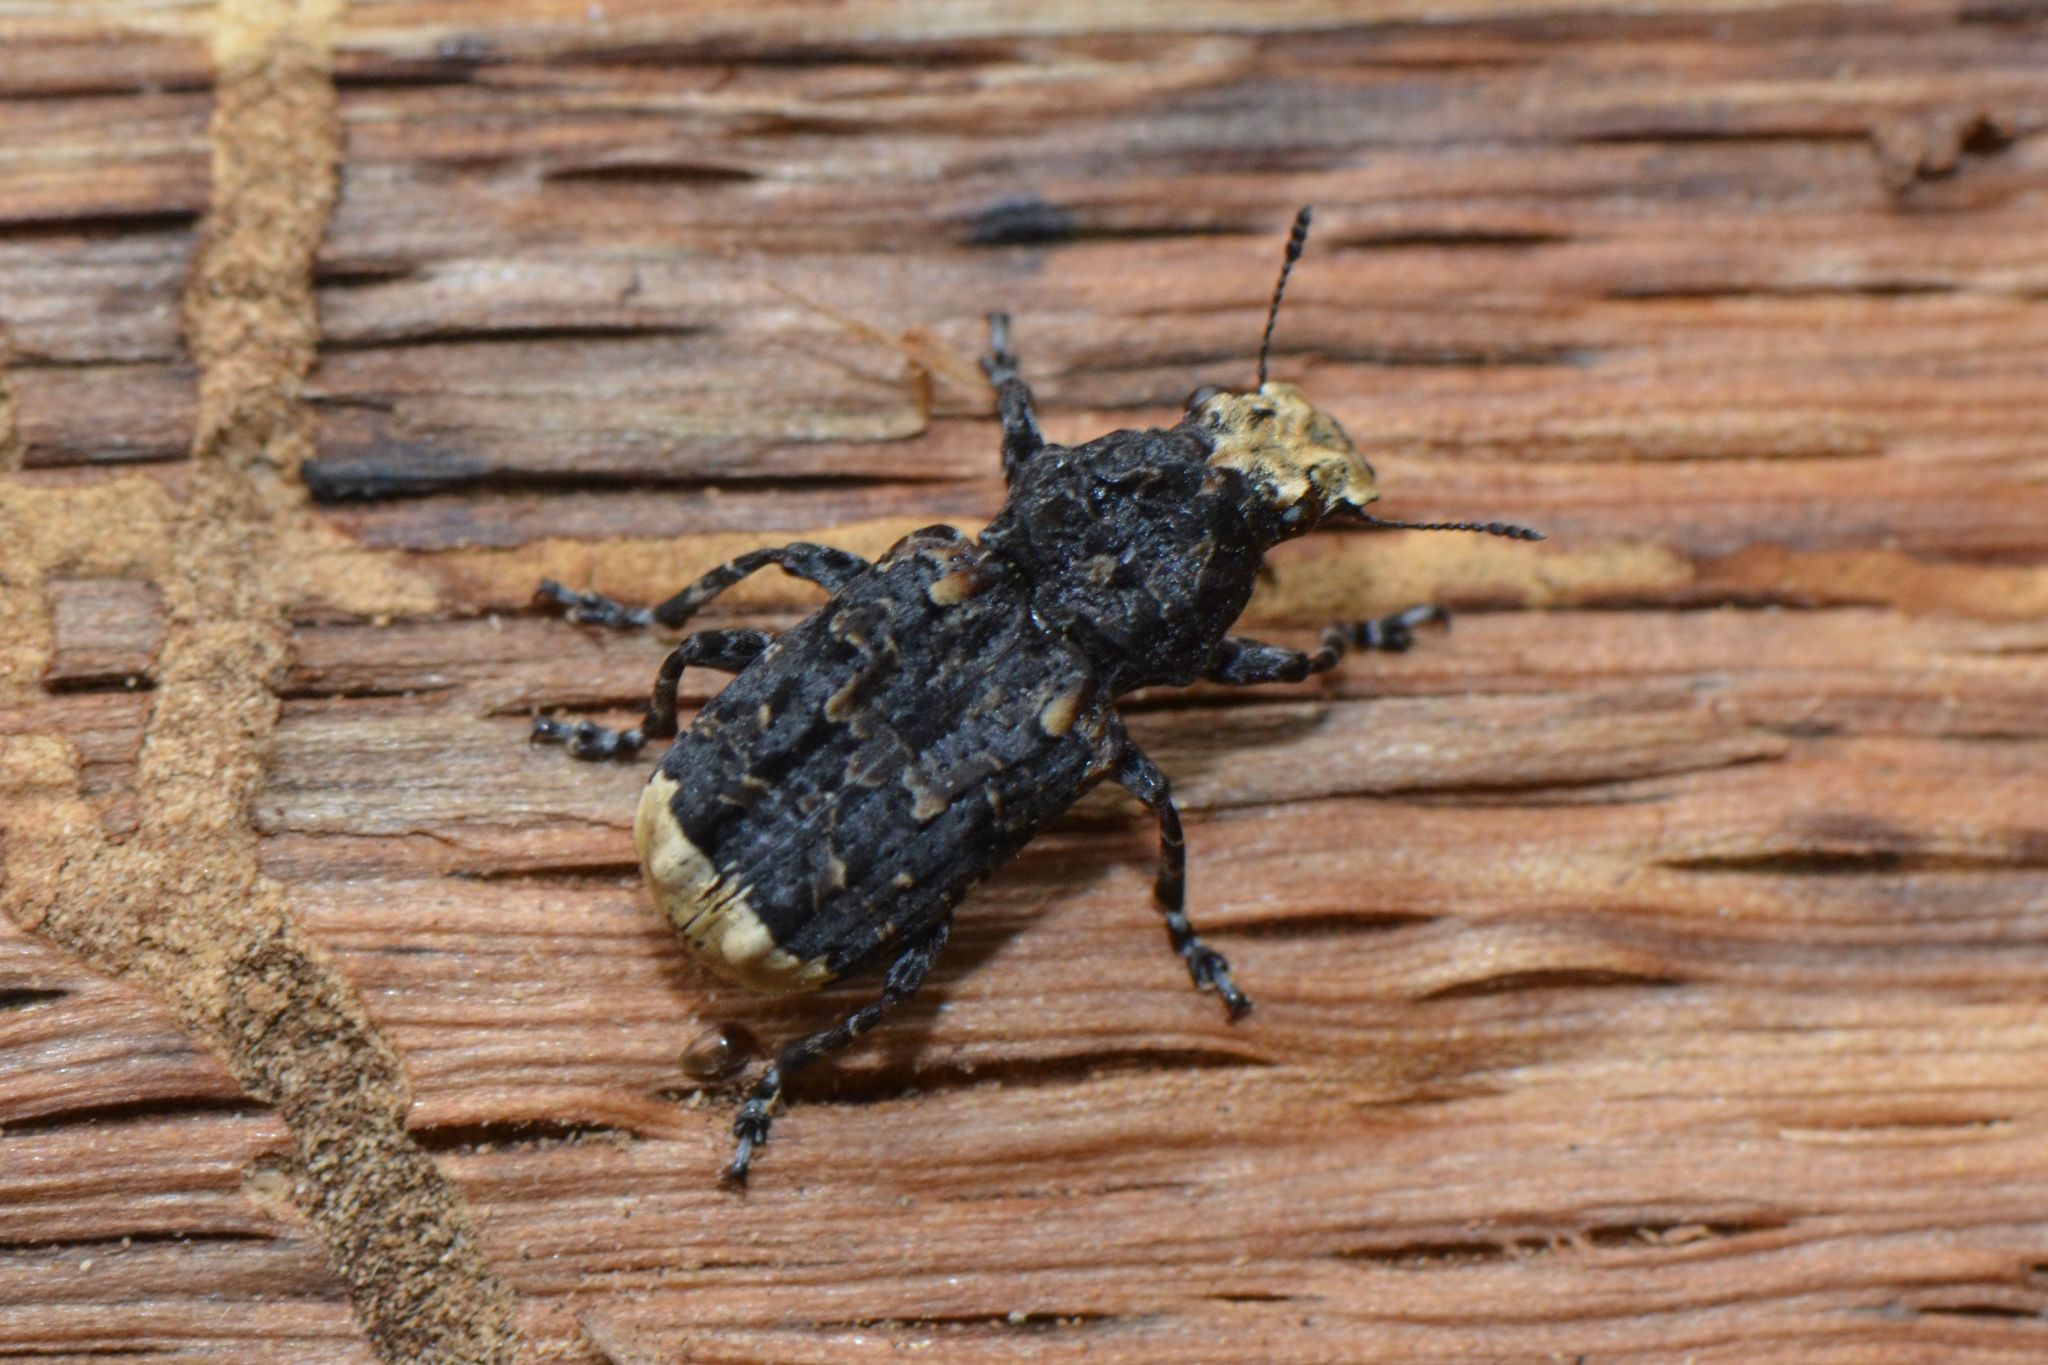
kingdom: Animalia
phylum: Arthropoda
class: Insecta
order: Coleoptera
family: Anthribidae
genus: Platyrhinus
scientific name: Platyrhinus resinosus
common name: Cramp-ball fungus weevil
